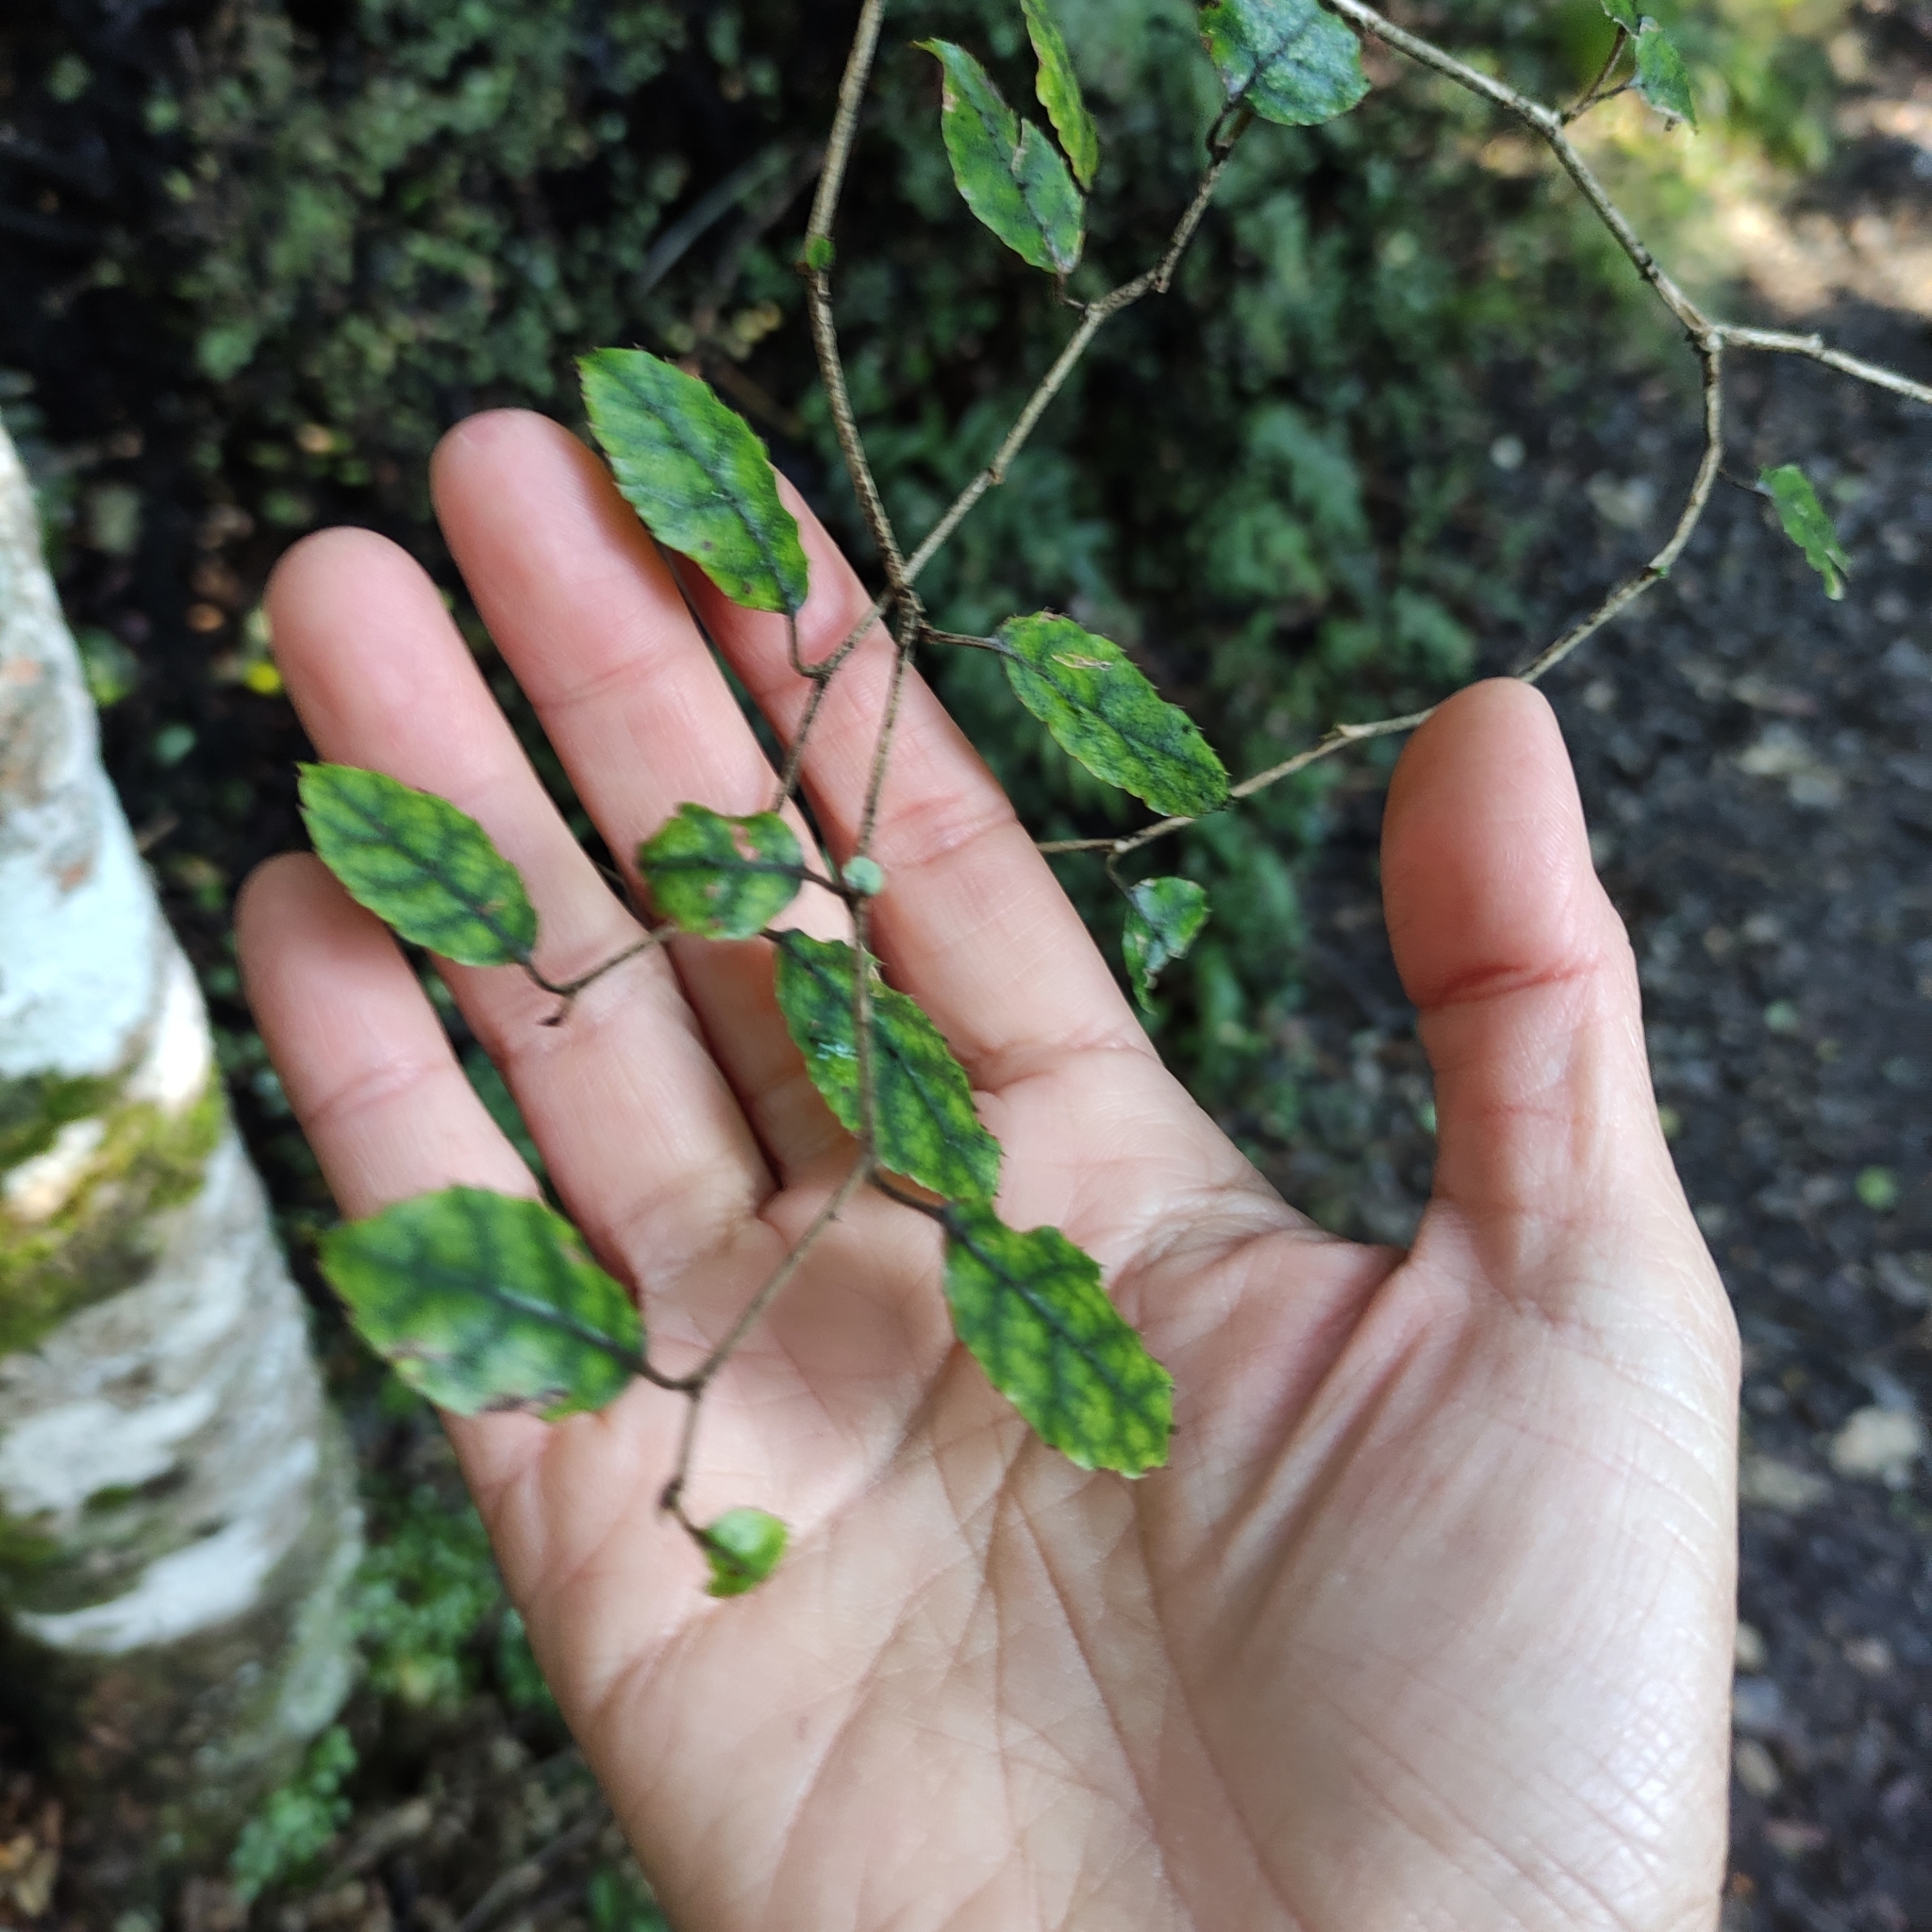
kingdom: Plantae
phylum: Tracheophyta
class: Magnoliopsida
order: Asterales
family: Rousseaceae
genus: Carpodetus
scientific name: Carpodetus serratus
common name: White mapau
